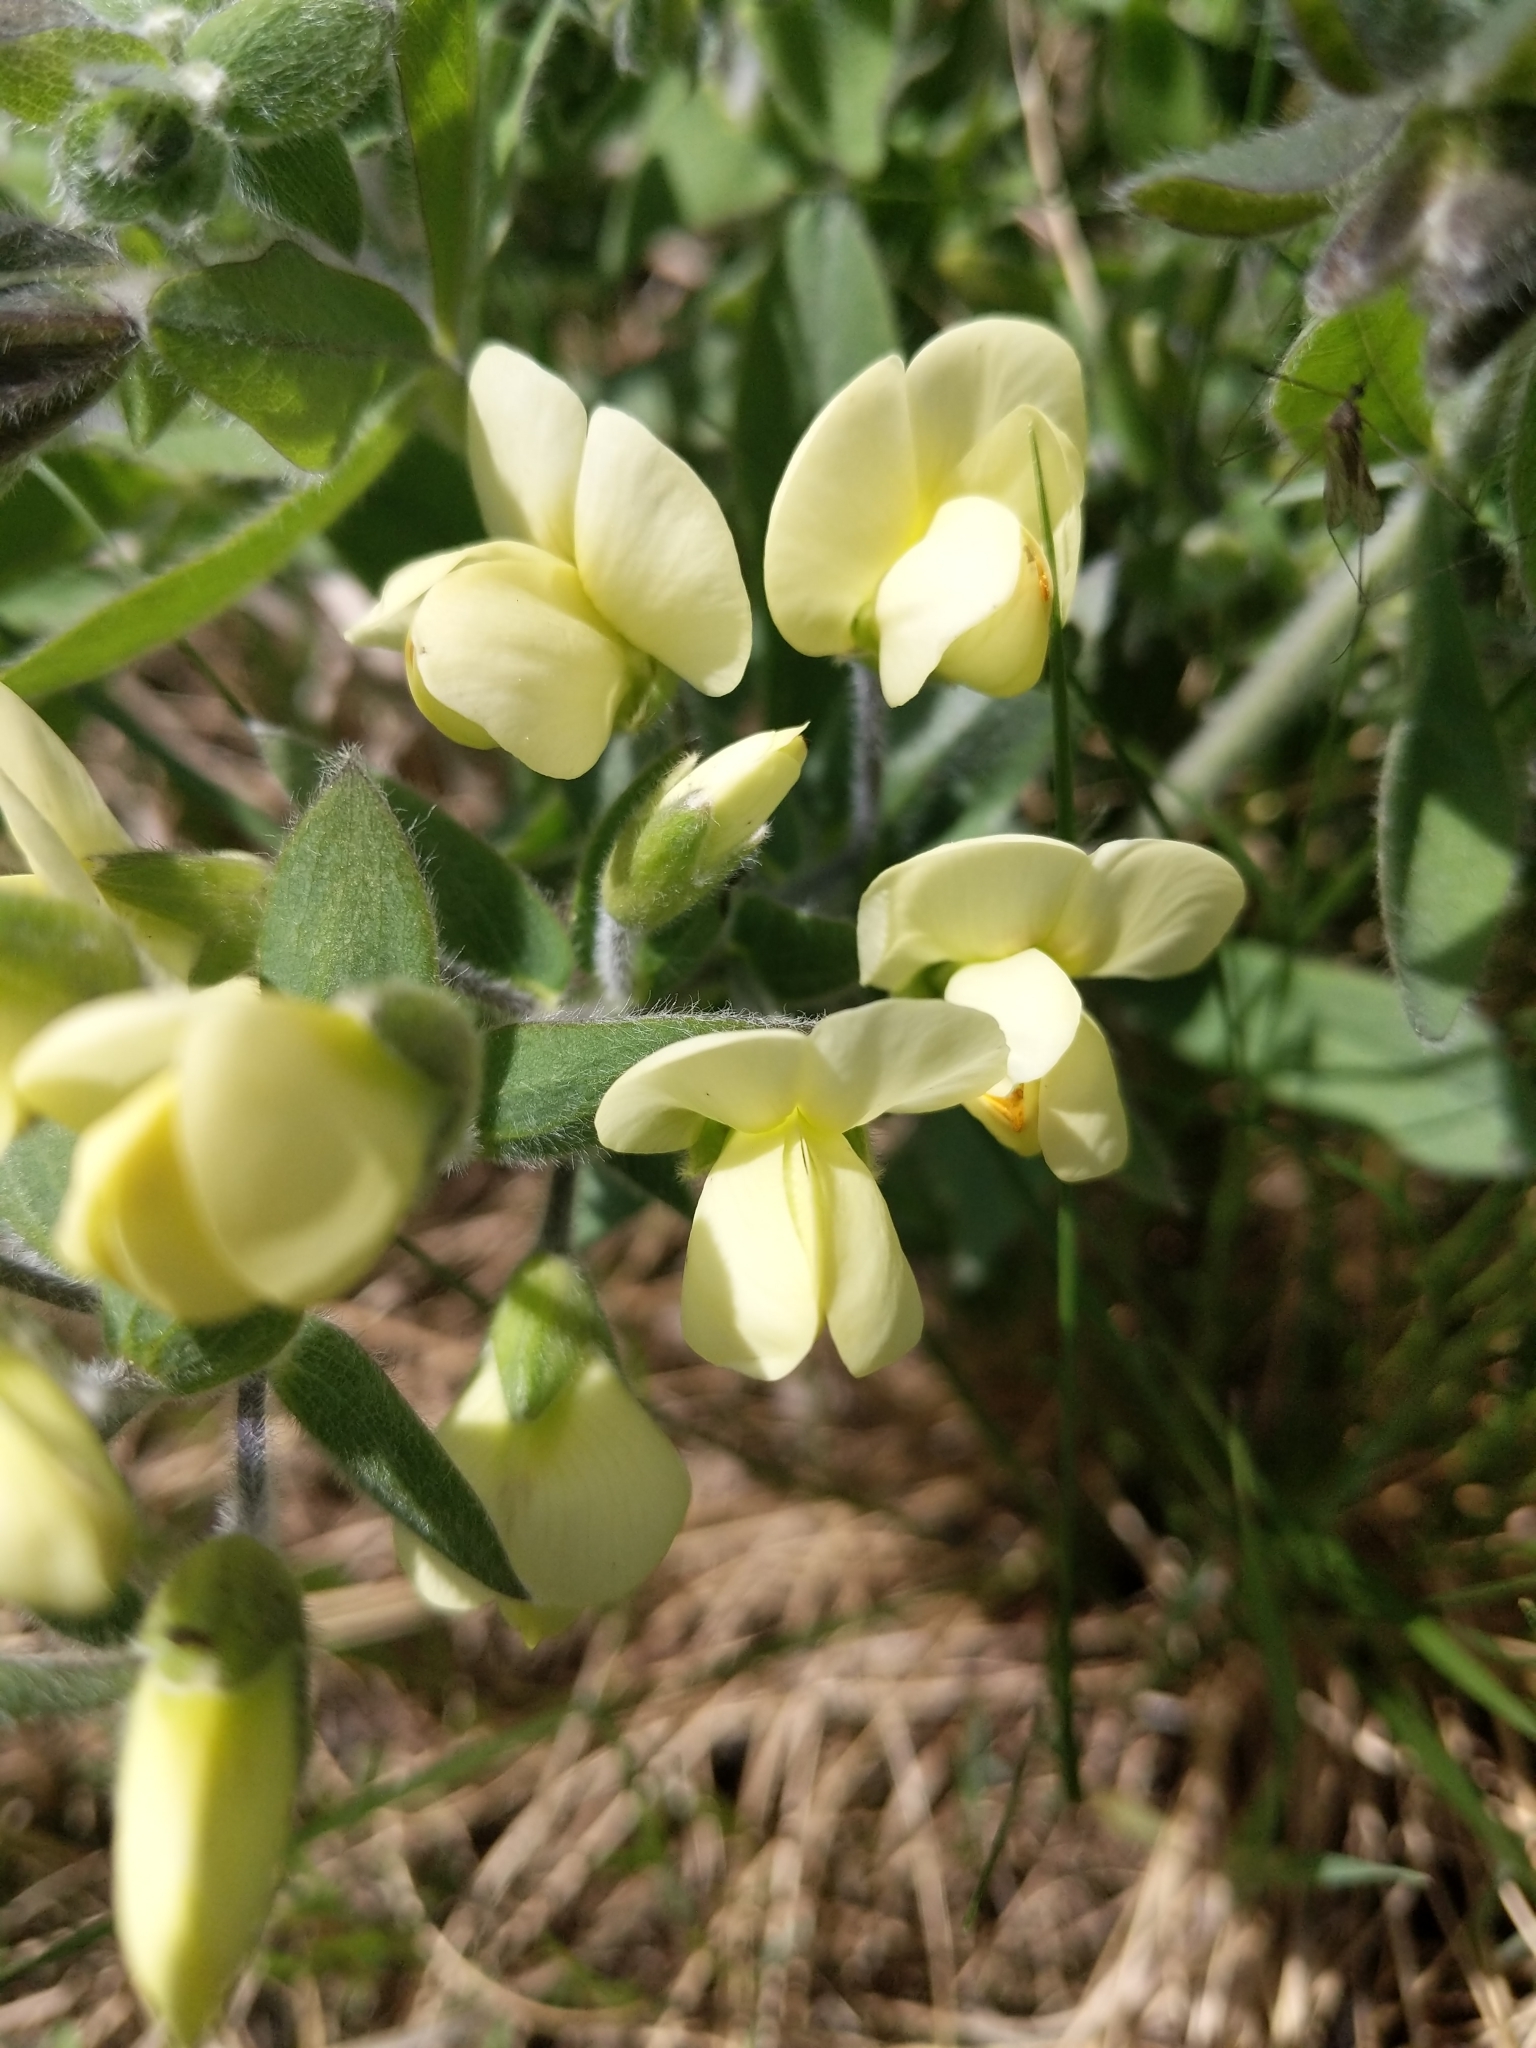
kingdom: Plantae
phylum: Tracheophyta
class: Magnoliopsida
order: Fabales
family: Fabaceae
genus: Baptisia
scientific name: Baptisia bracteata
